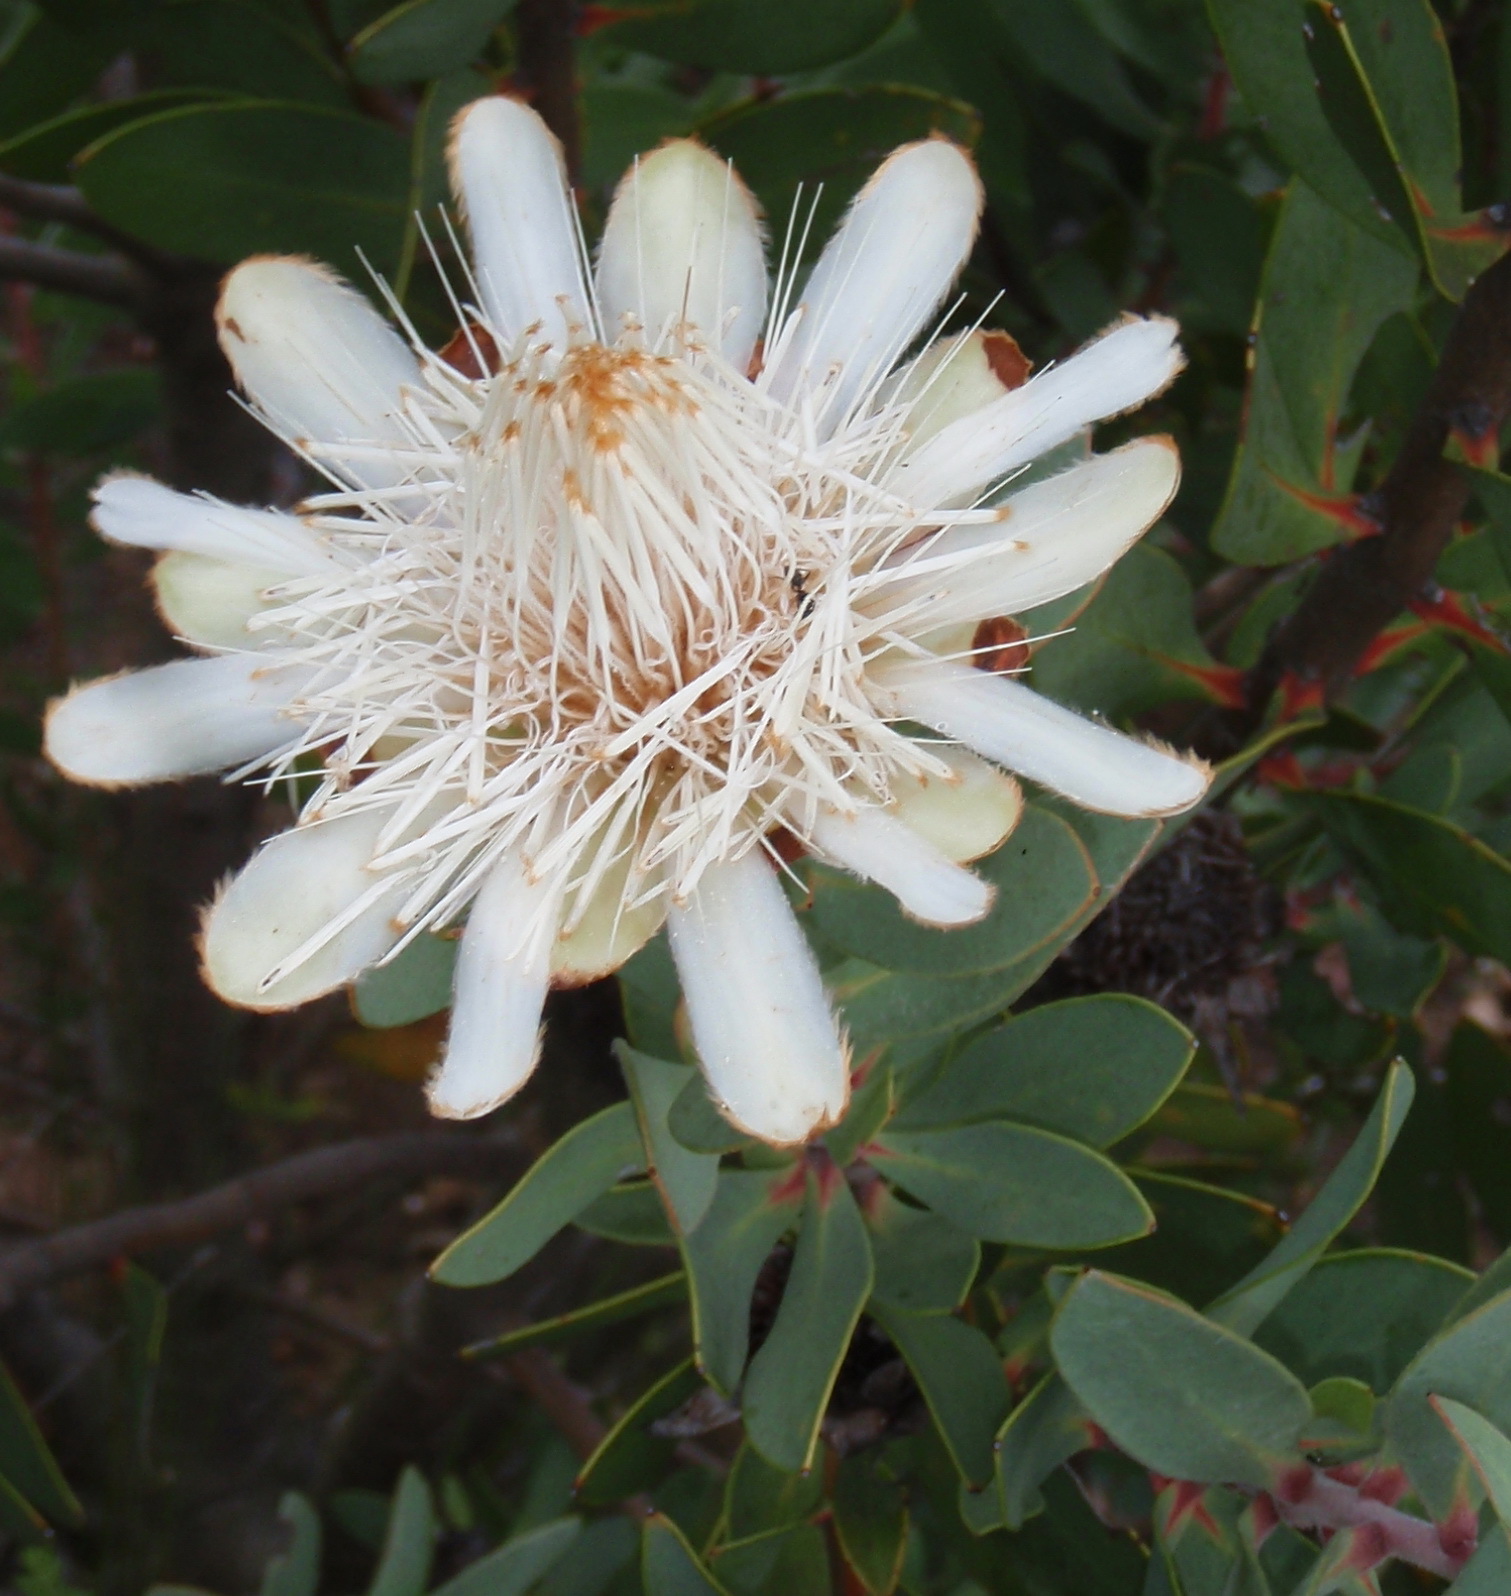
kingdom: Plantae
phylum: Tracheophyta
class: Magnoliopsida
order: Proteales
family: Proteaceae
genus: Protea
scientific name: Protea punctata
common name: Water sugarbush
